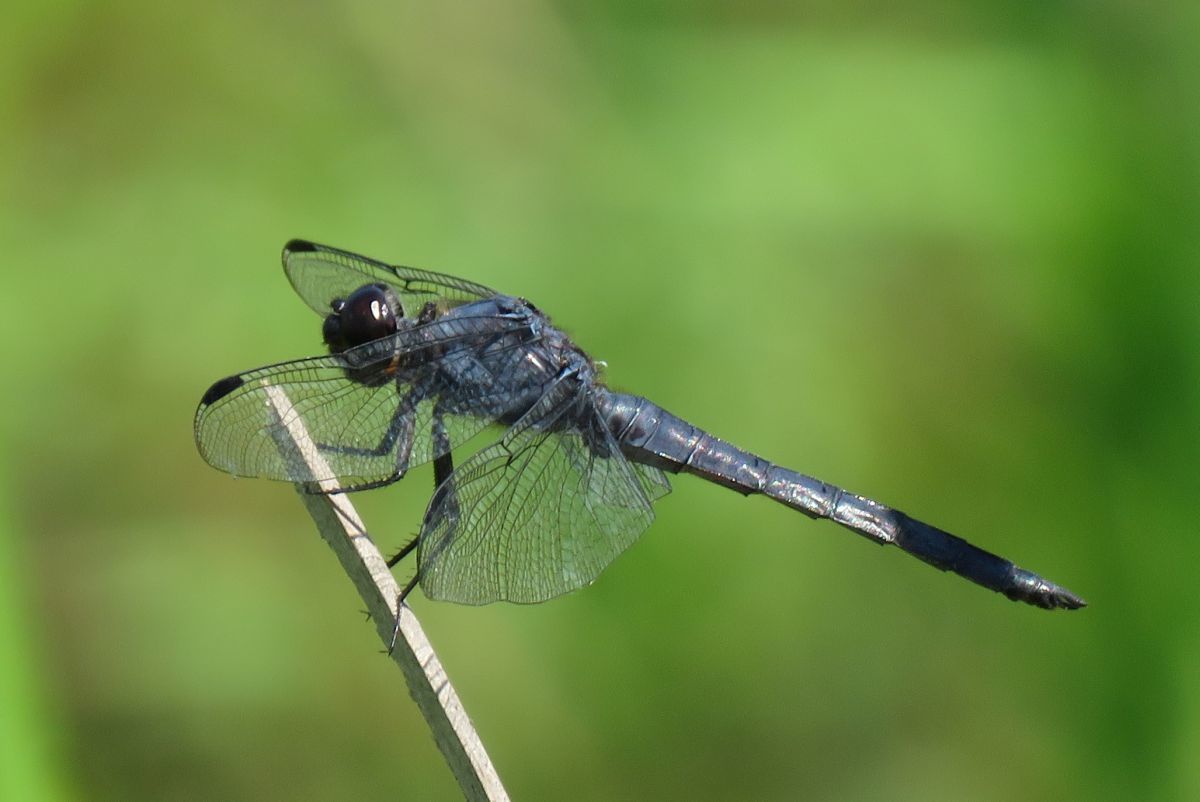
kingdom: Animalia
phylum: Arthropoda
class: Insecta
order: Odonata
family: Libellulidae
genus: Libellula
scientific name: Libellula incesta
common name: Slaty skimmer
